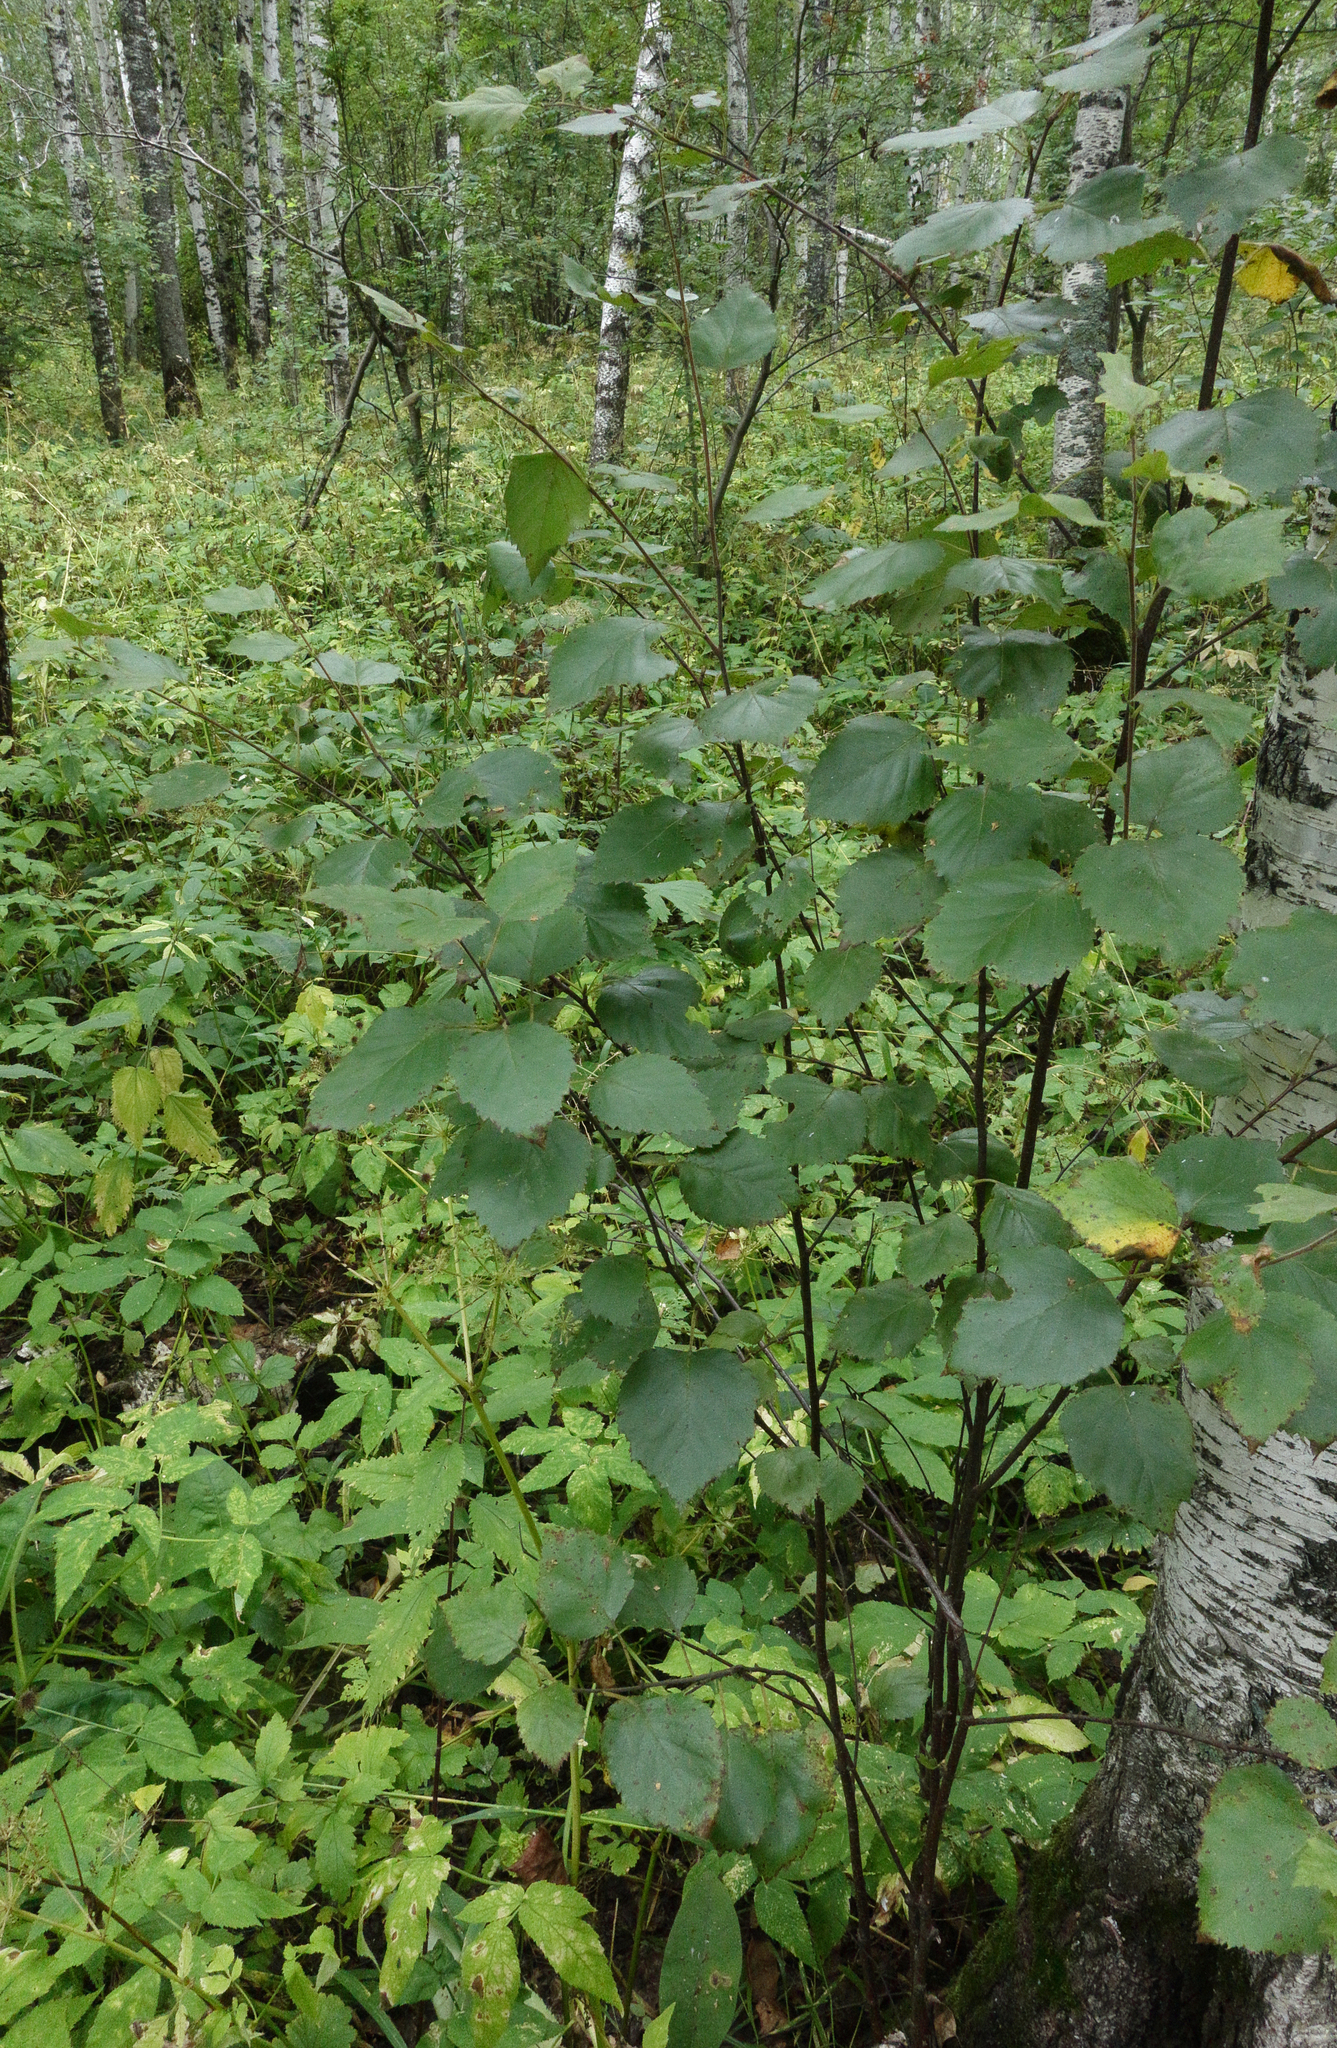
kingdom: Plantae
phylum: Tracheophyta
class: Magnoliopsida
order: Fagales
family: Betulaceae
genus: Betula
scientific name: Betula pubescens
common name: Downy birch
